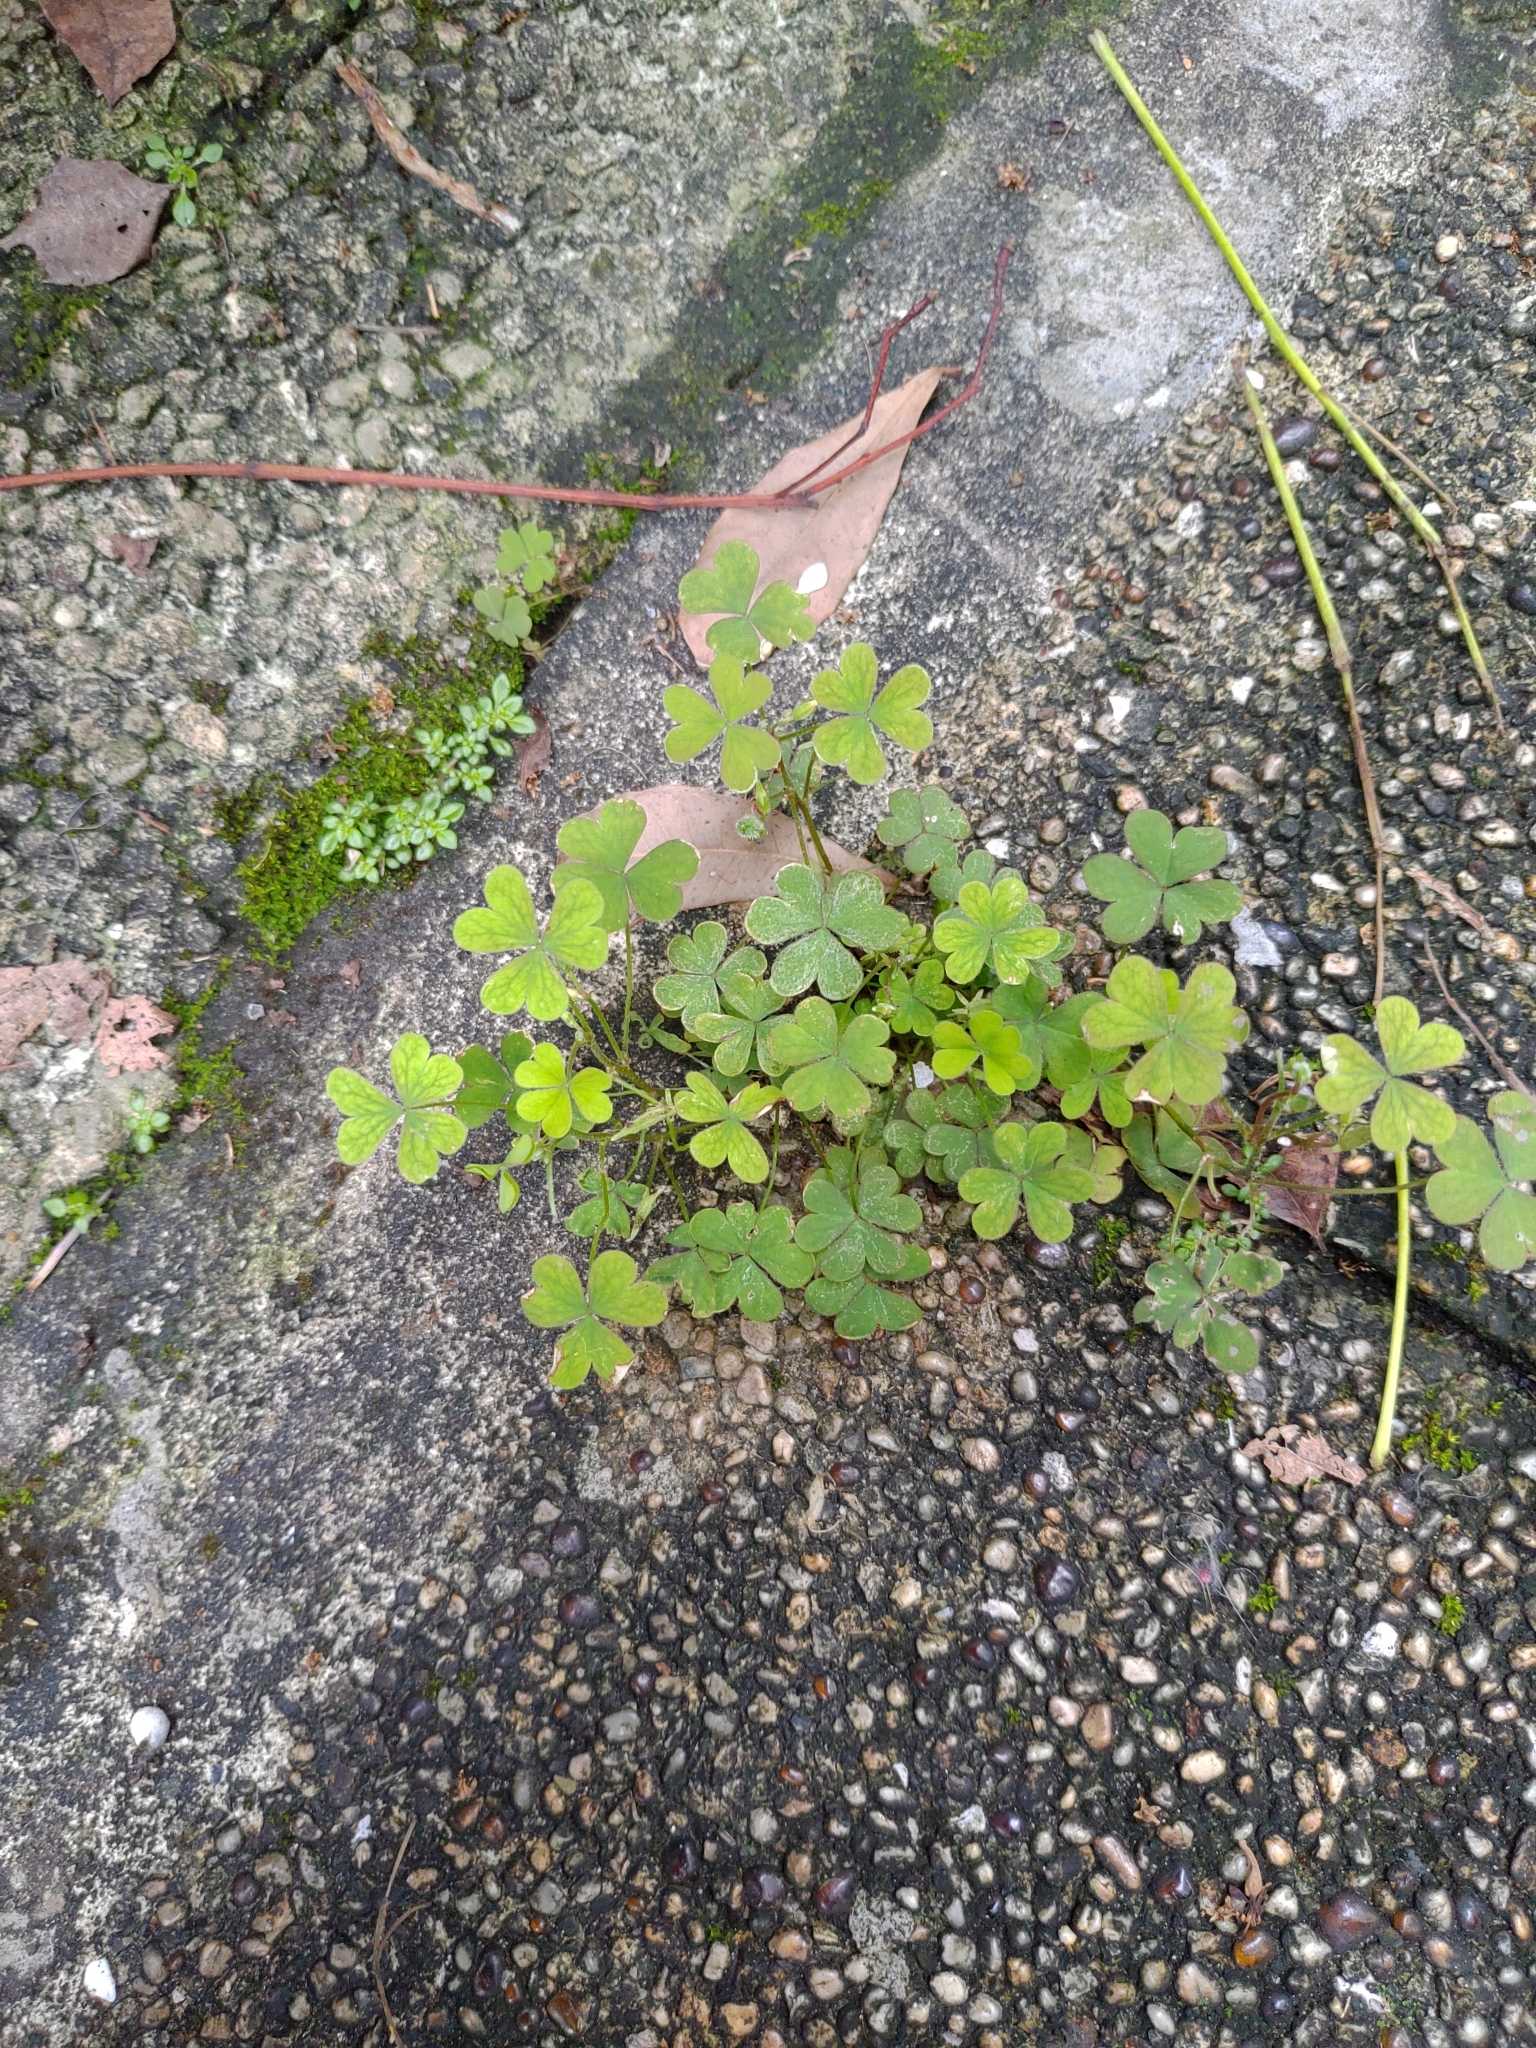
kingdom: Plantae
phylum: Tracheophyta
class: Magnoliopsida
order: Oxalidales
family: Oxalidaceae
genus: Oxalis
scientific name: Oxalis corniculata
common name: Procumbent yellow-sorrel
